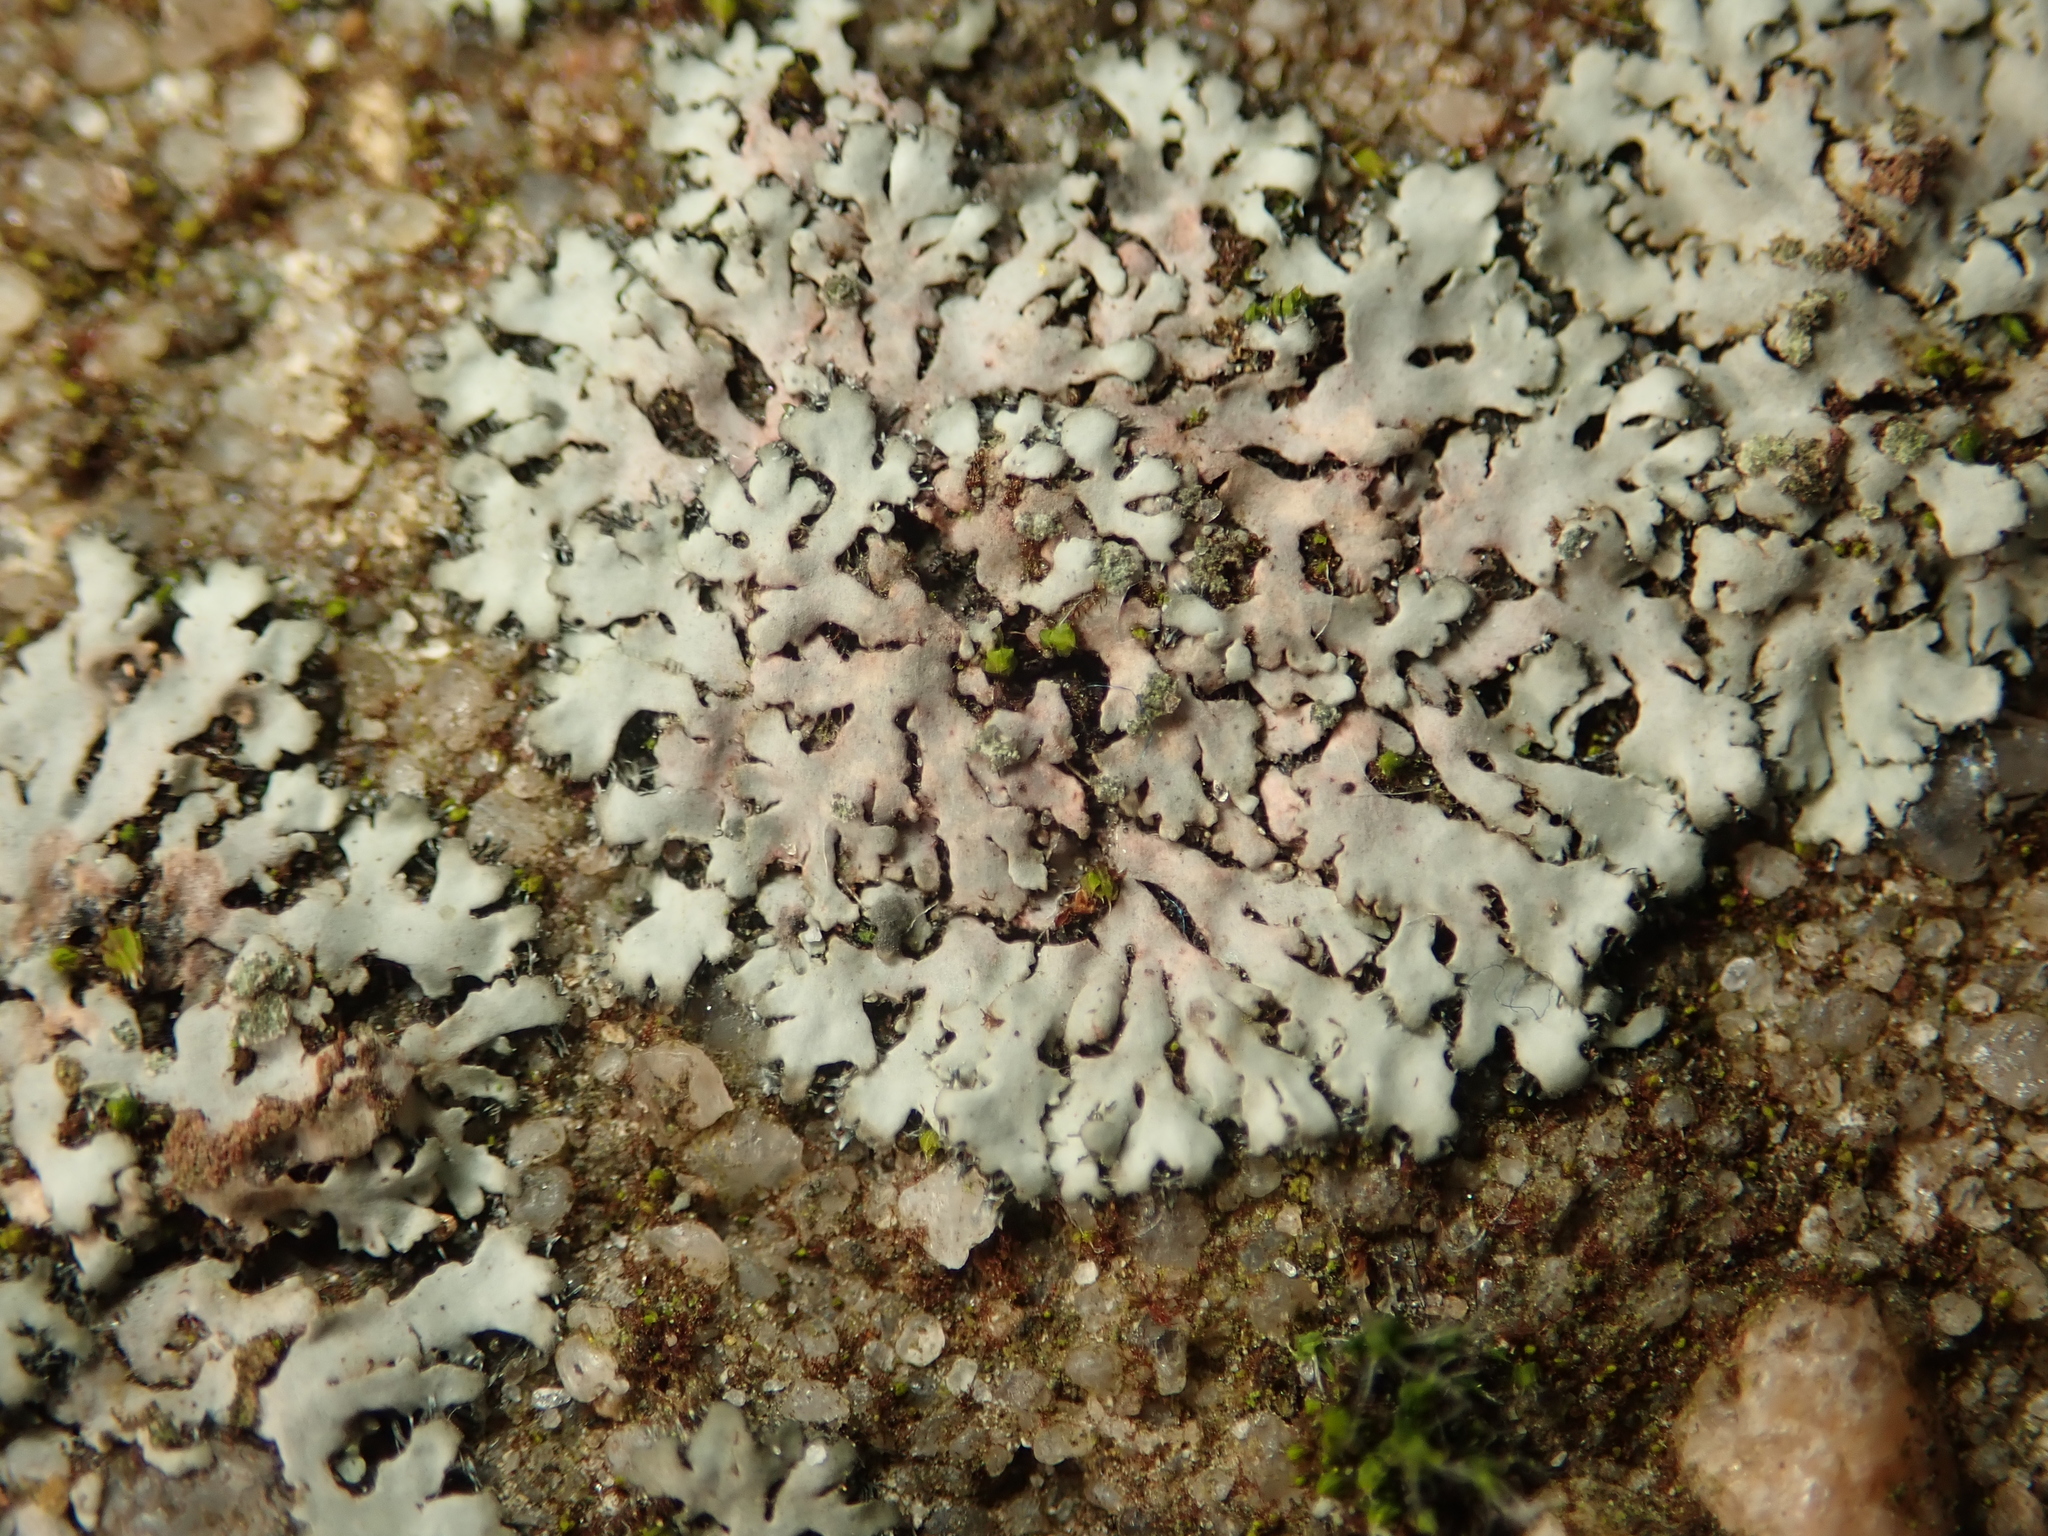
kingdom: Fungi
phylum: Ascomycota
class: Lecanoromycetes
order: Caliciales
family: Physciaceae
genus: Phaeophyscia
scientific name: Phaeophyscia orbicularis
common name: Mealy shadow lichen
